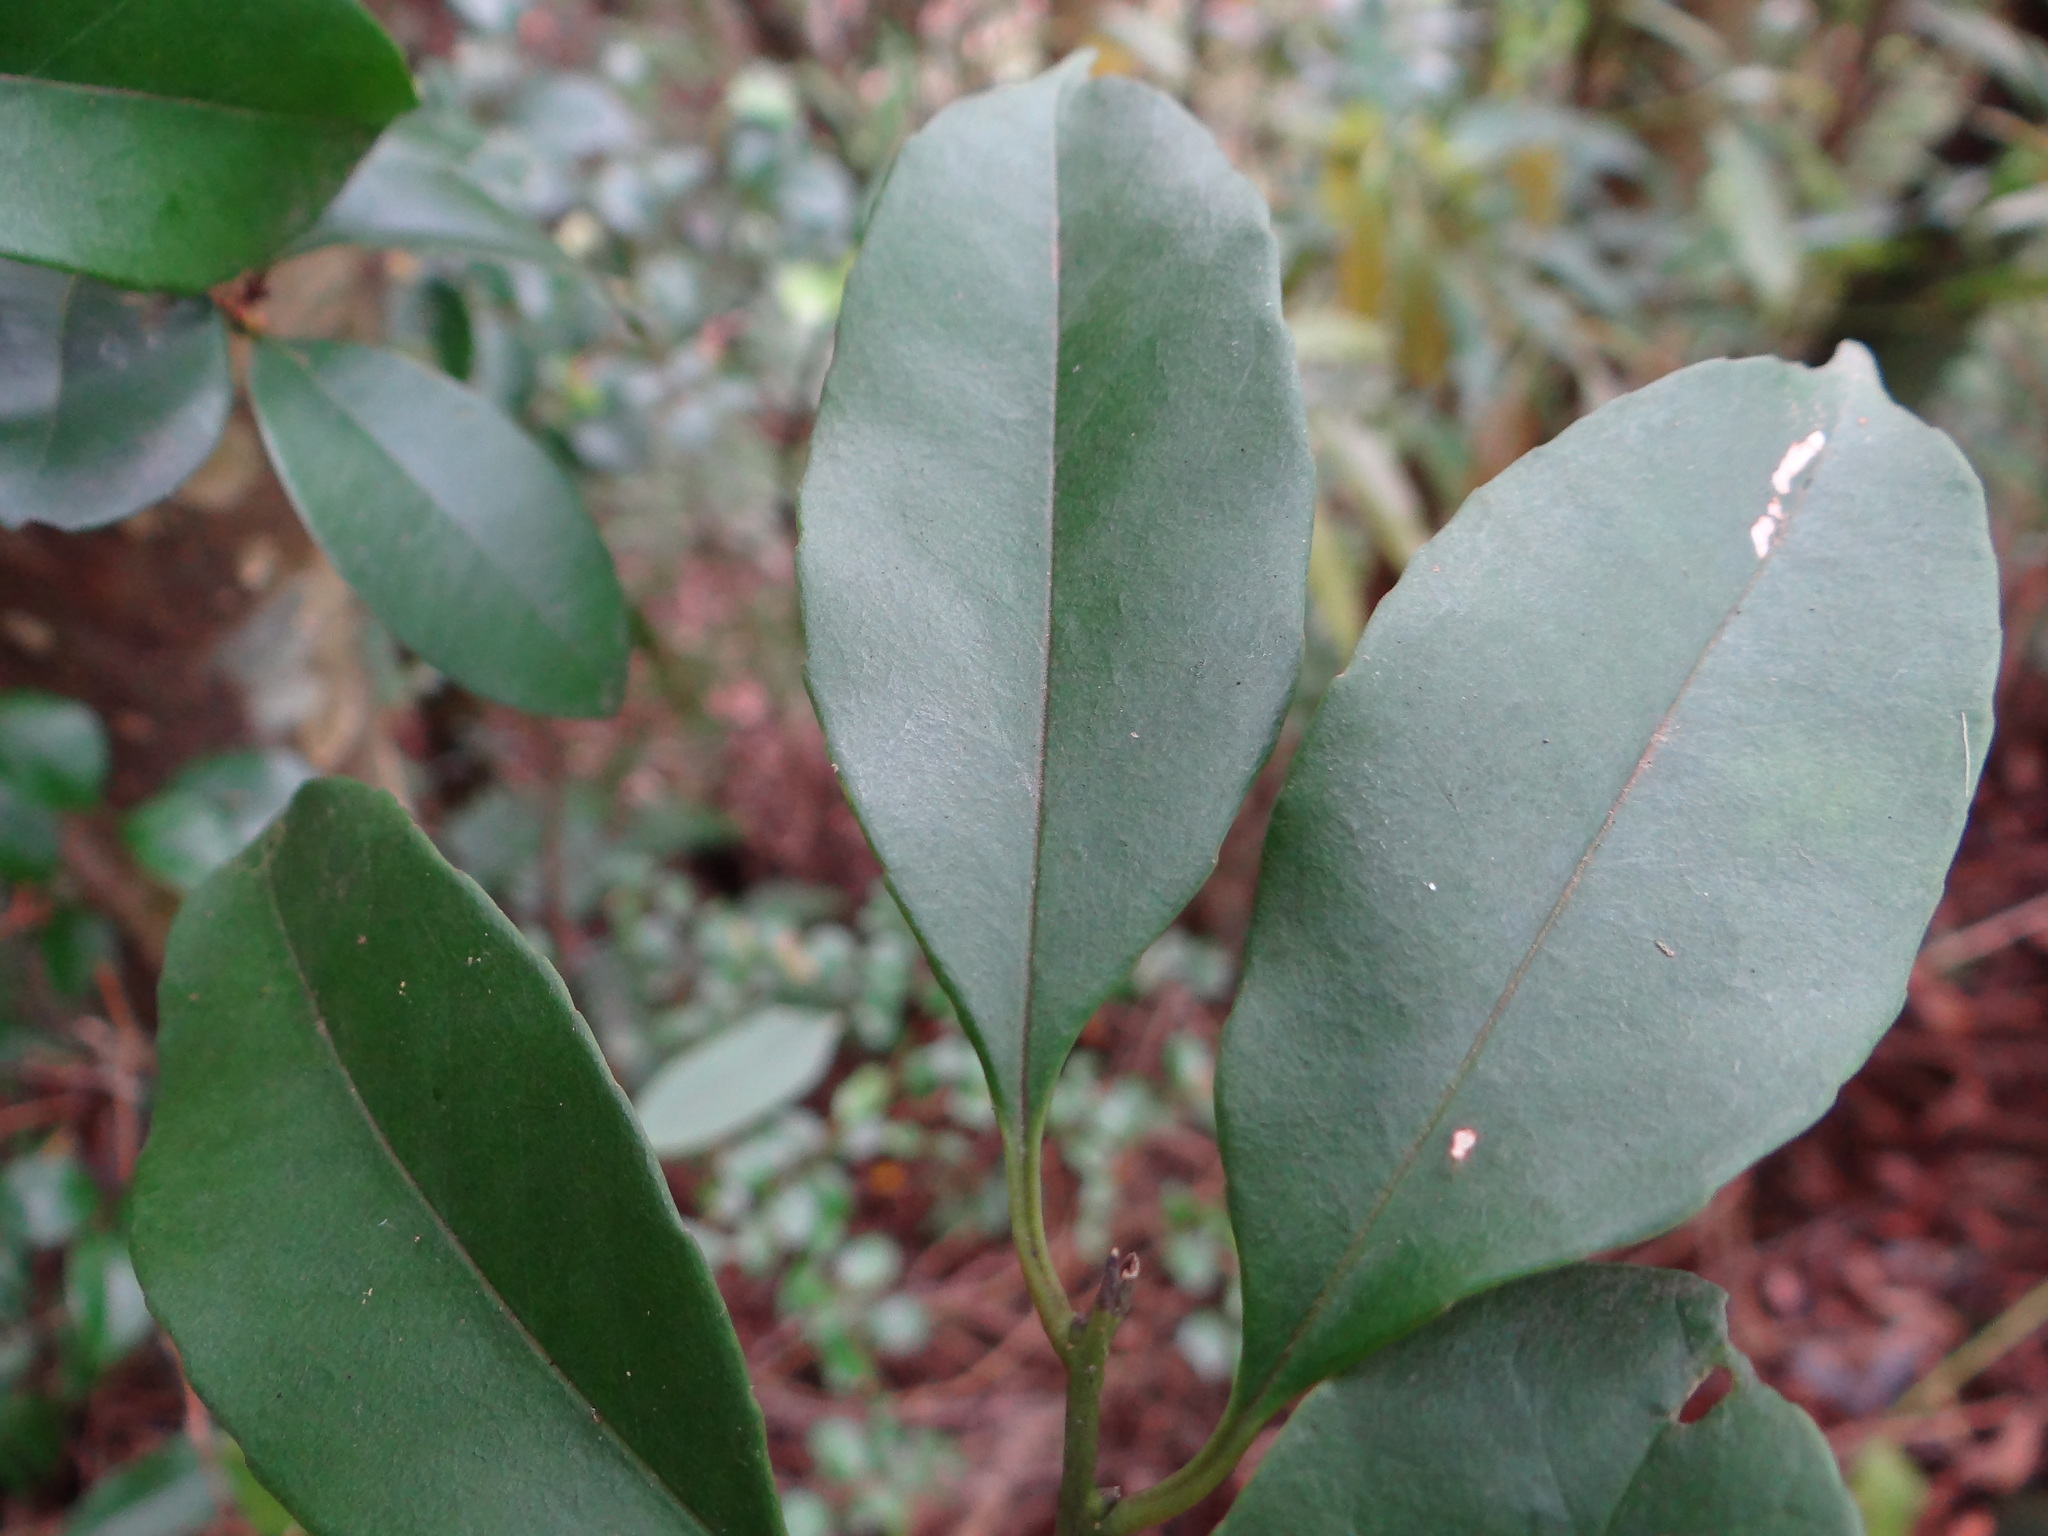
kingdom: Plantae
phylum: Tracheophyta
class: Magnoliopsida
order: Aquifoliales
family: Aquifoliaceae
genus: Ilex
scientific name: Ilex ficoidea
